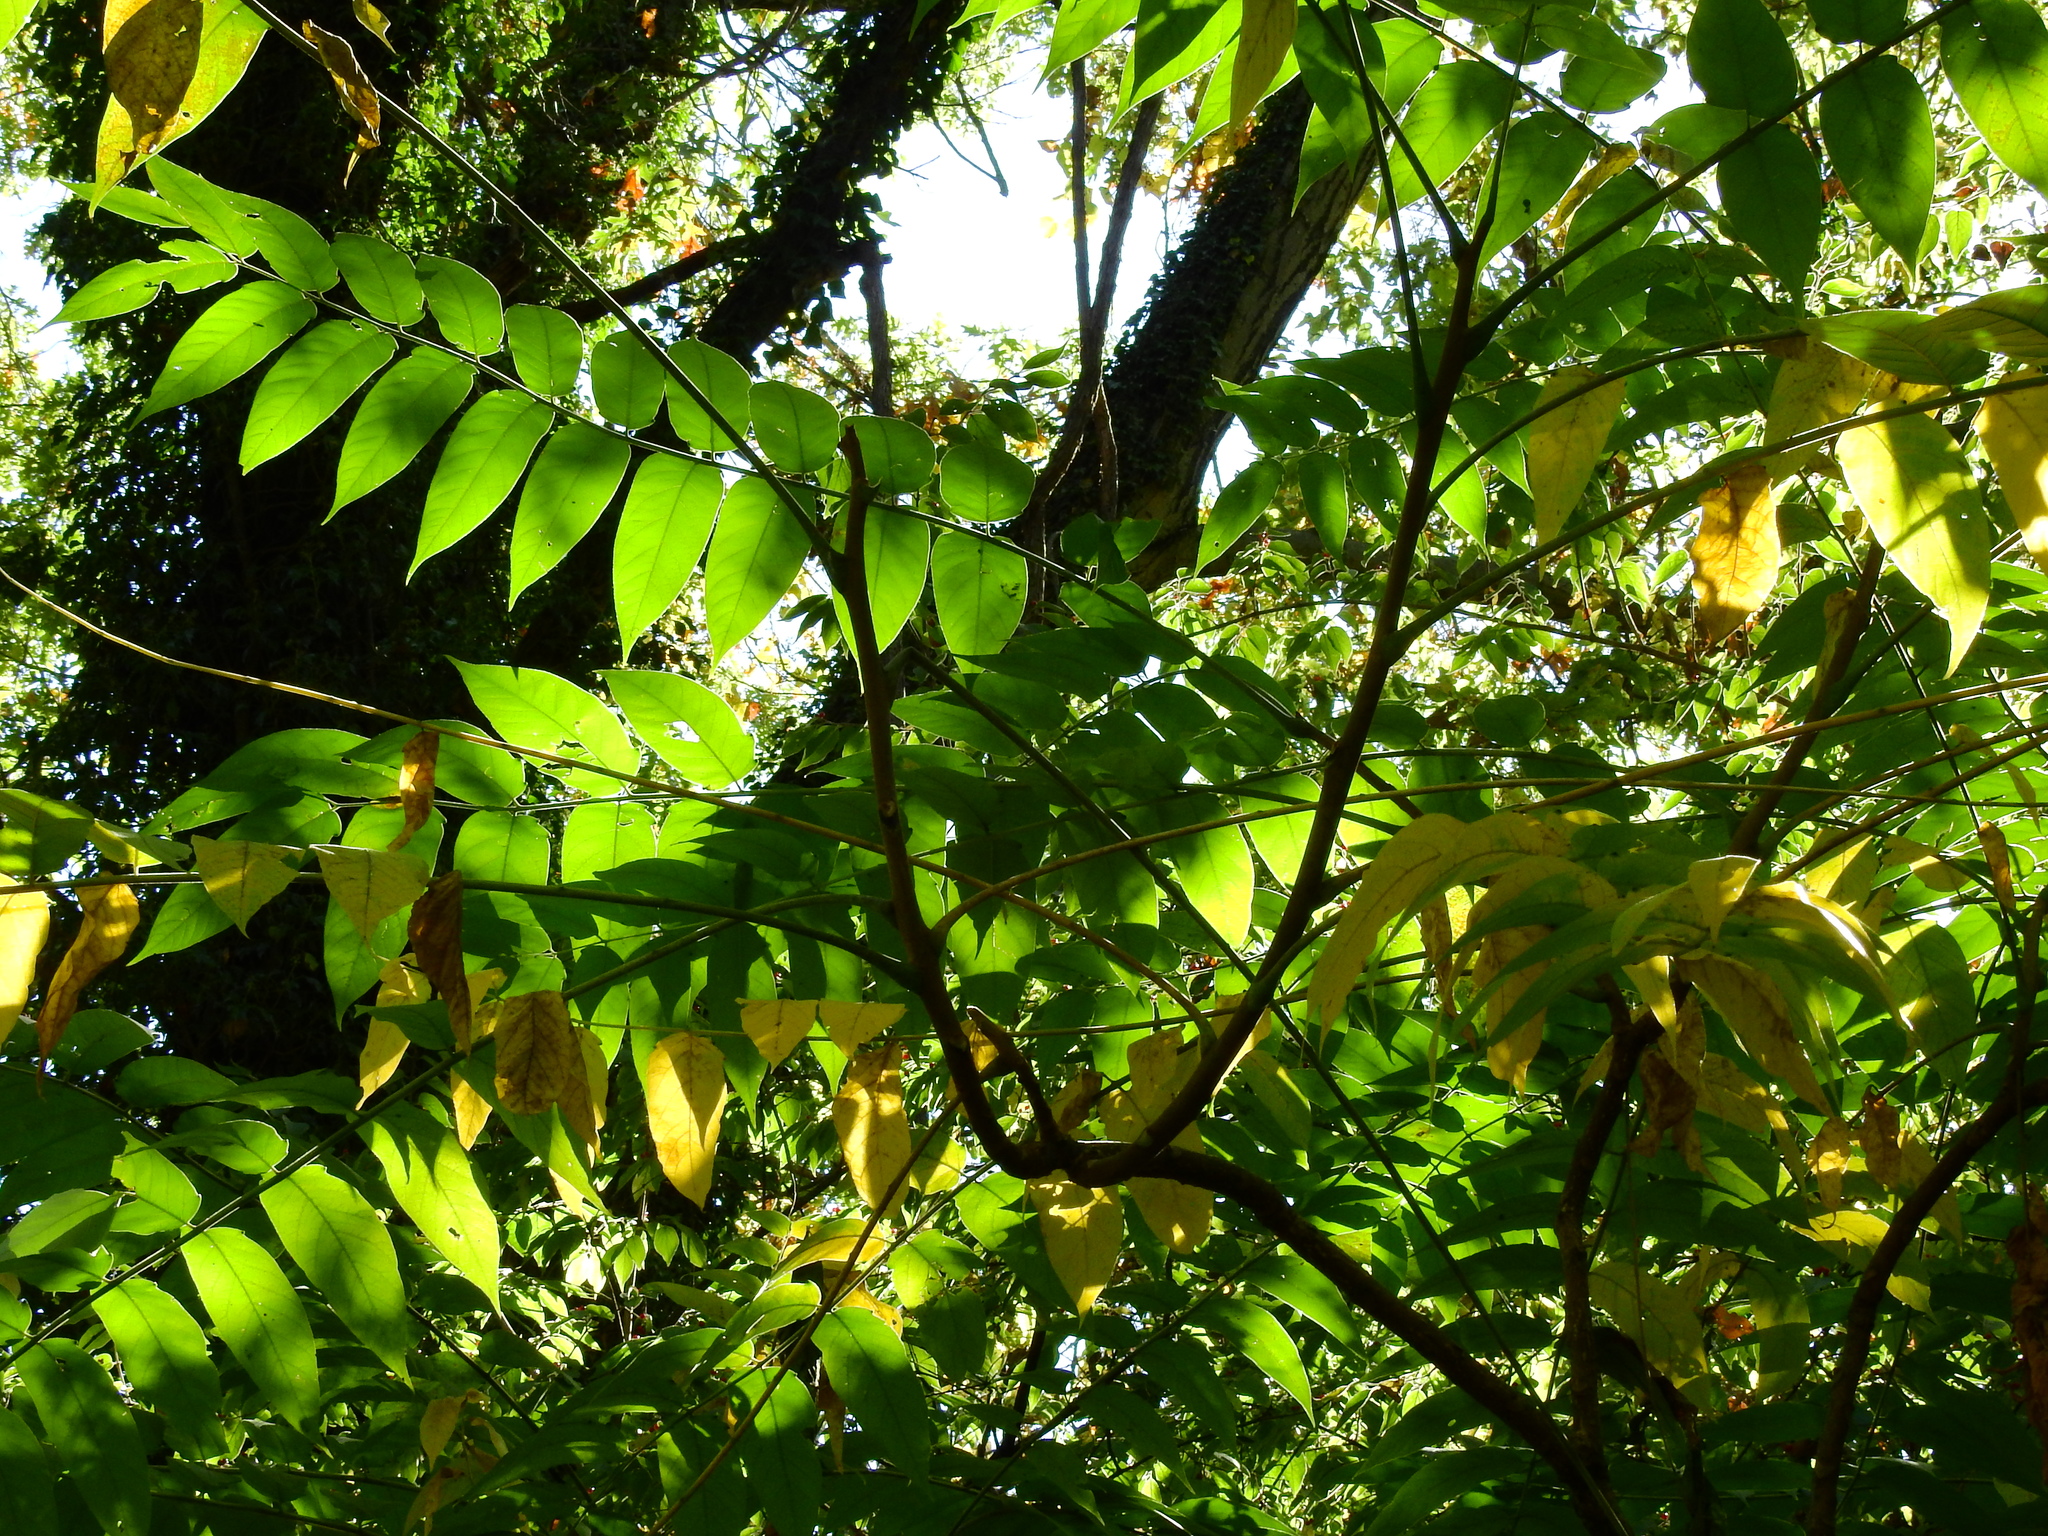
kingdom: Plantae
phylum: Tracheophyta
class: Magnoliopsida
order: Sapindales
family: Simaroubaceae
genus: Ailanthus
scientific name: Ailanthus altissima
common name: Tree-of-heaven
